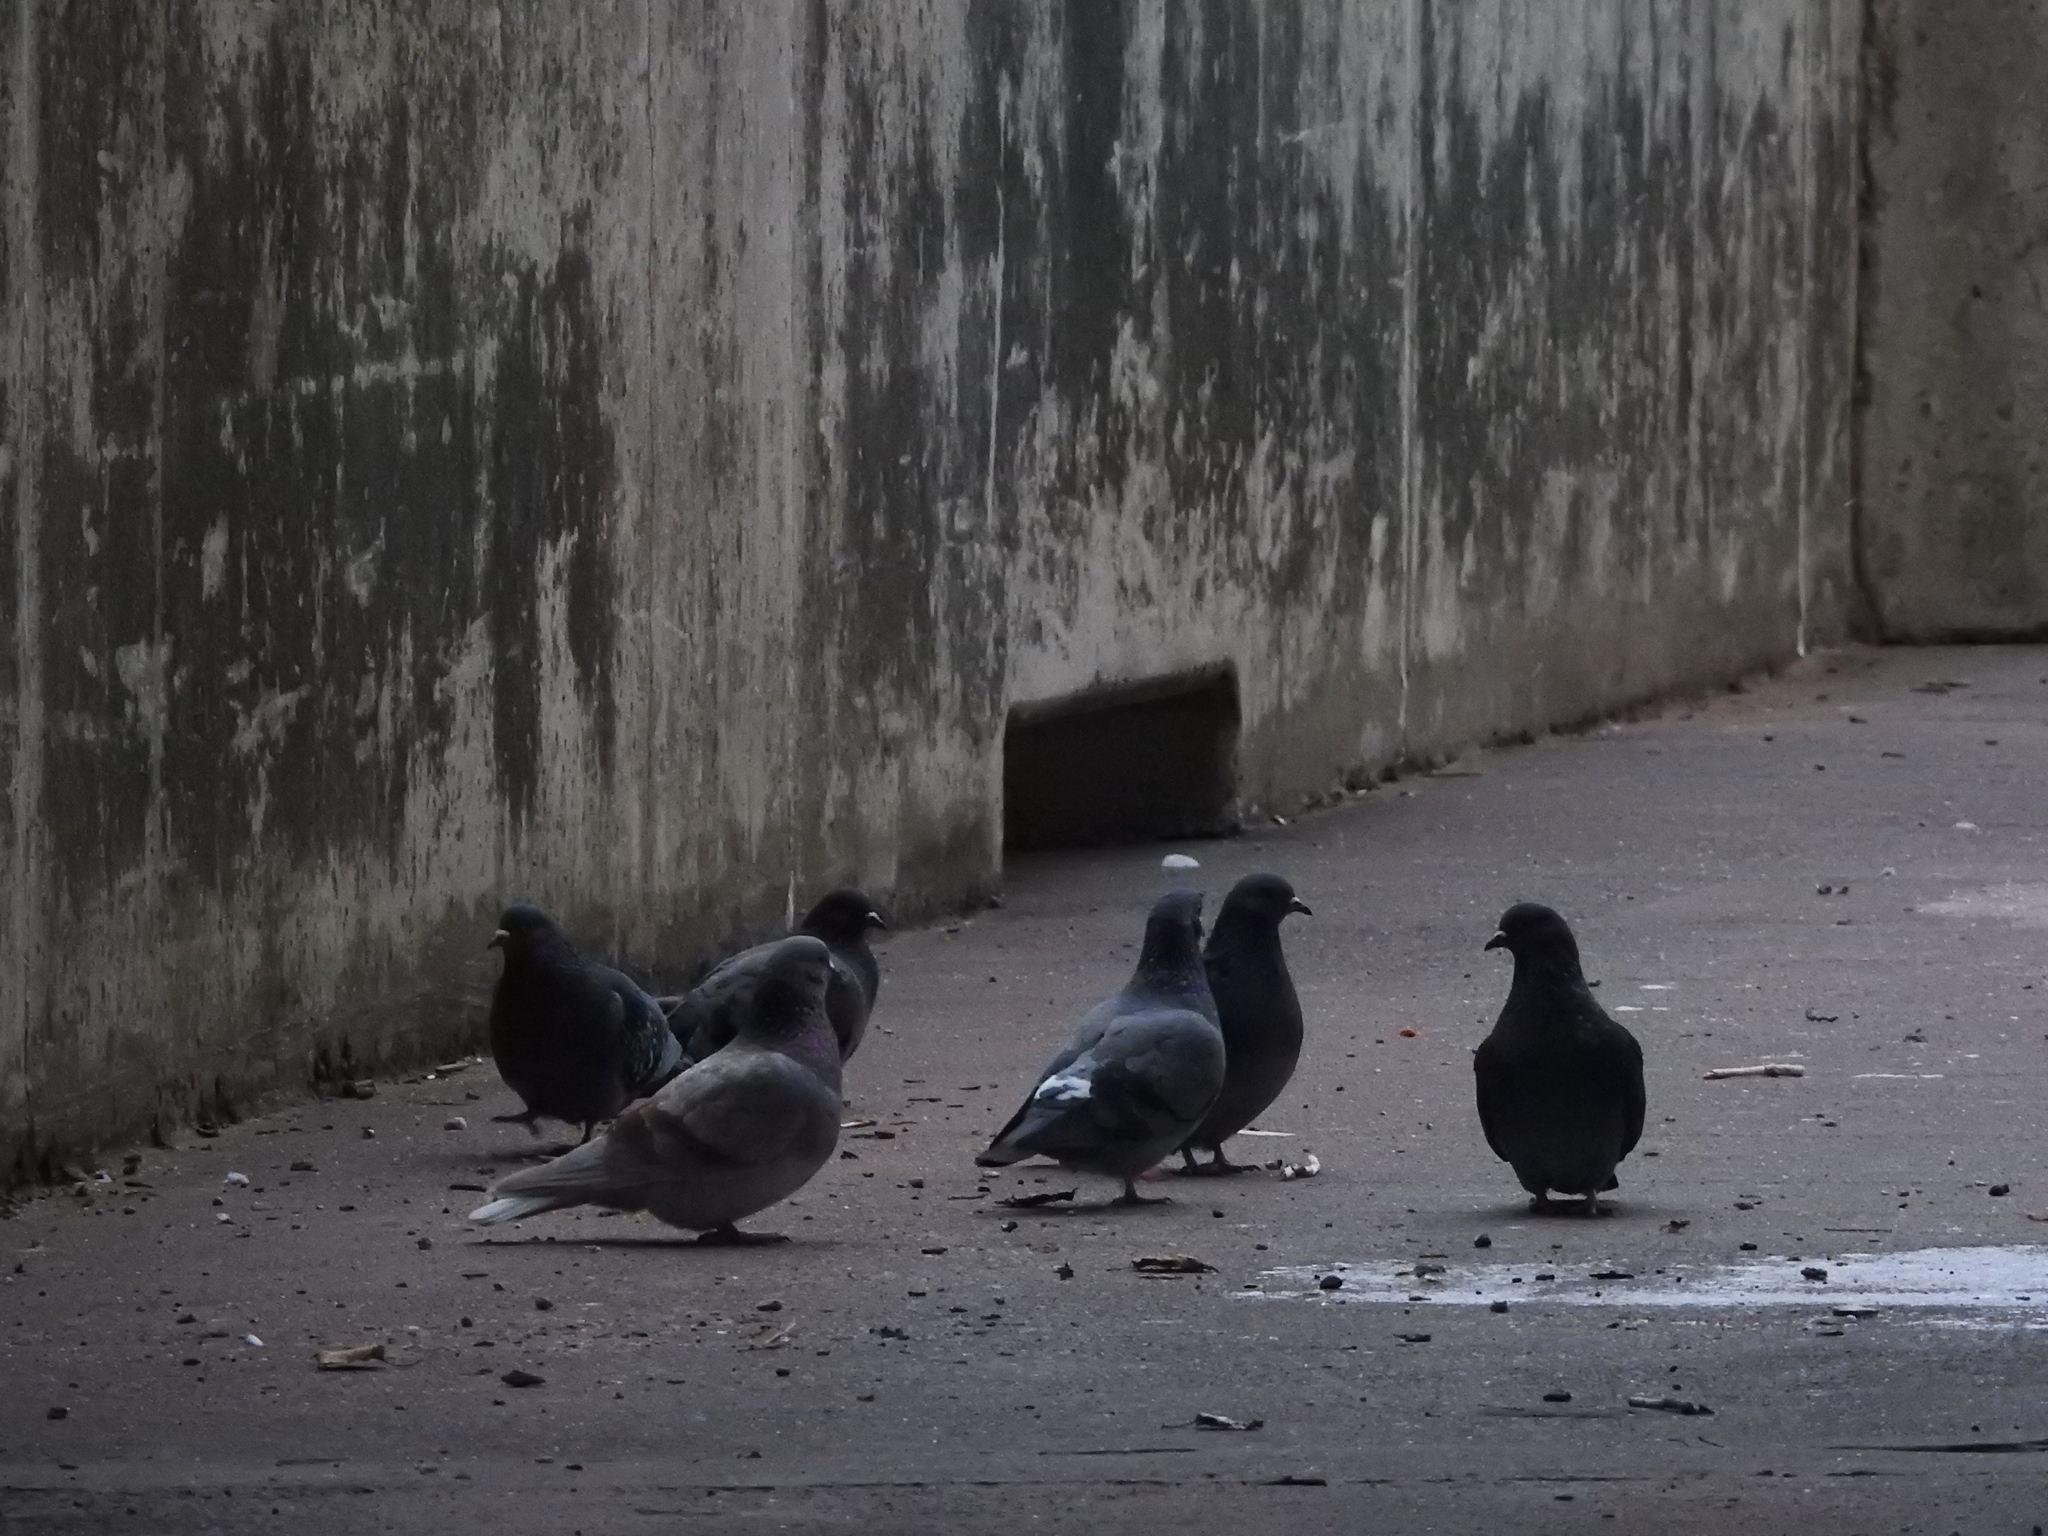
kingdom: Animalia
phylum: Chordata
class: Aves
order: Columbiformes
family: Columbidae
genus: Columba
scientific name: Columba livia
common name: Rock pigeon
